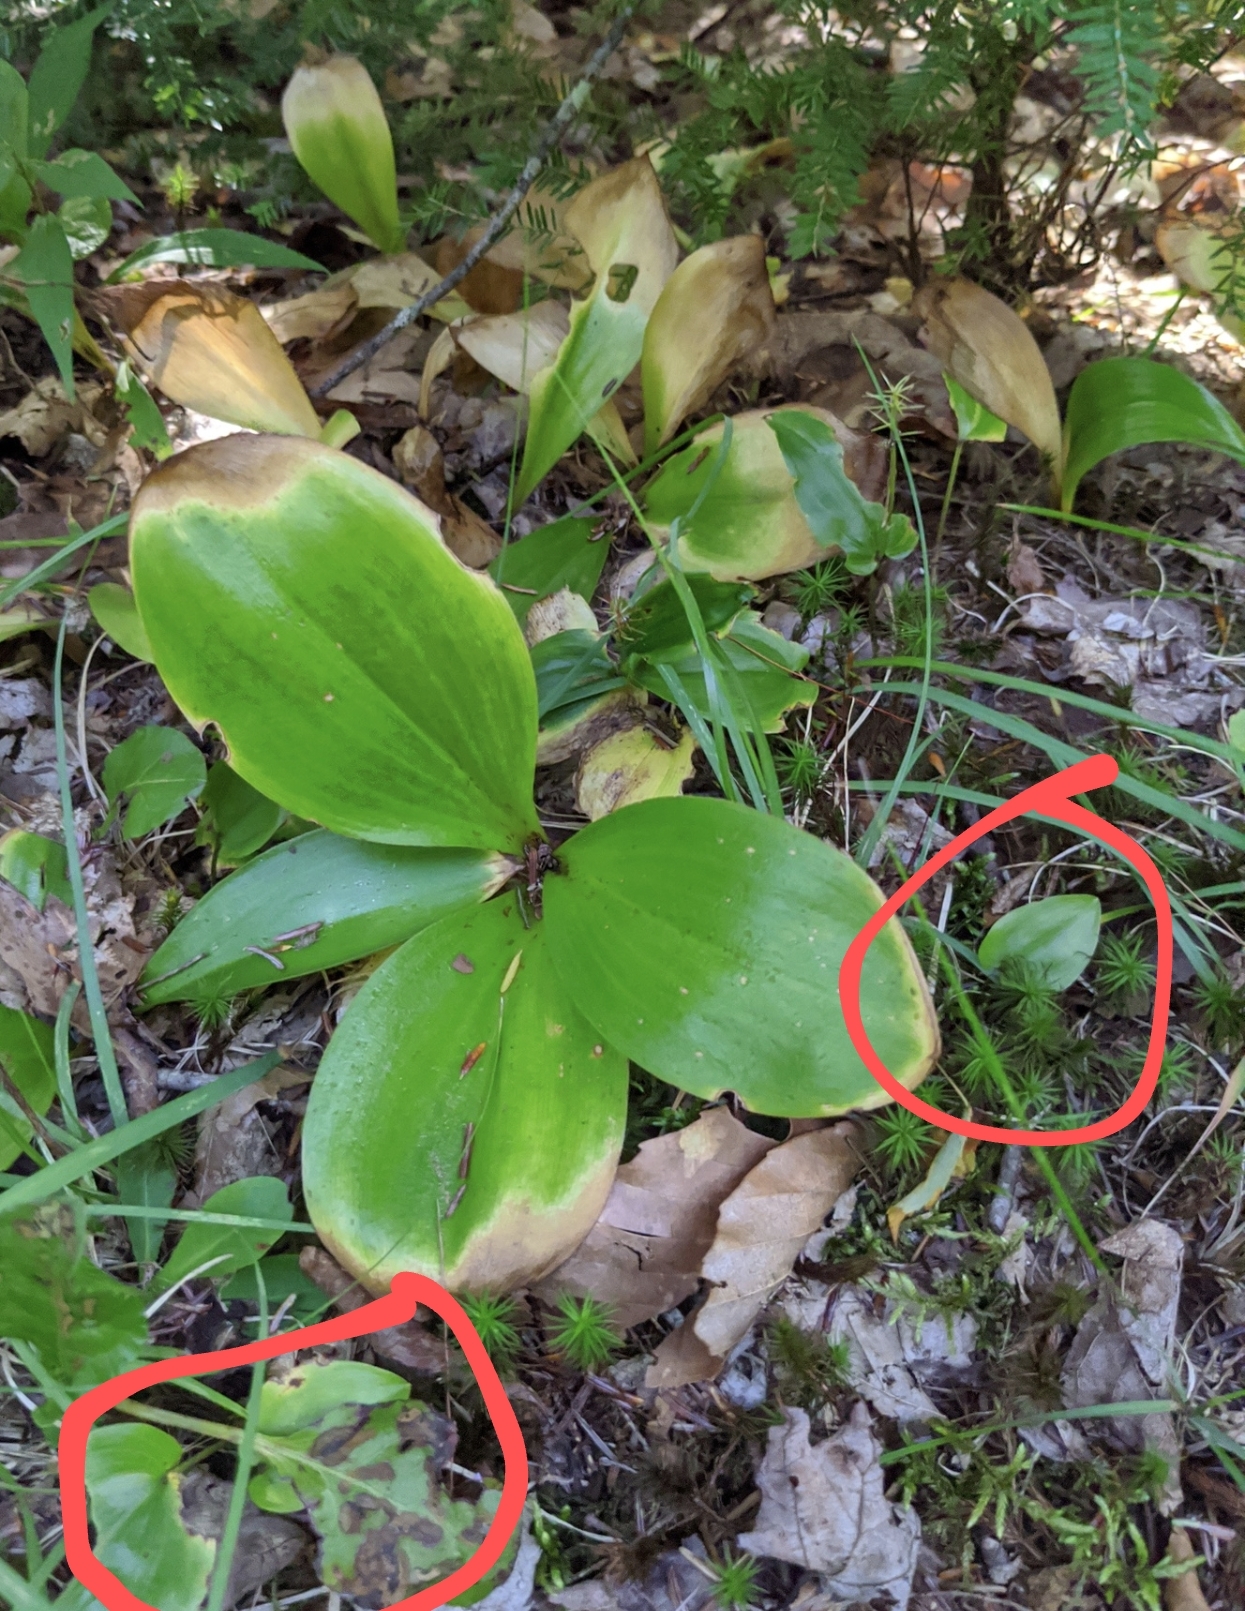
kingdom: Plantae
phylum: Tracheophyta
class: Liliopsida
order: Asparagales
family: Asparagaceae
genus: Maianthemum
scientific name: Maianthemum canadense
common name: False lily-of-the-valley
